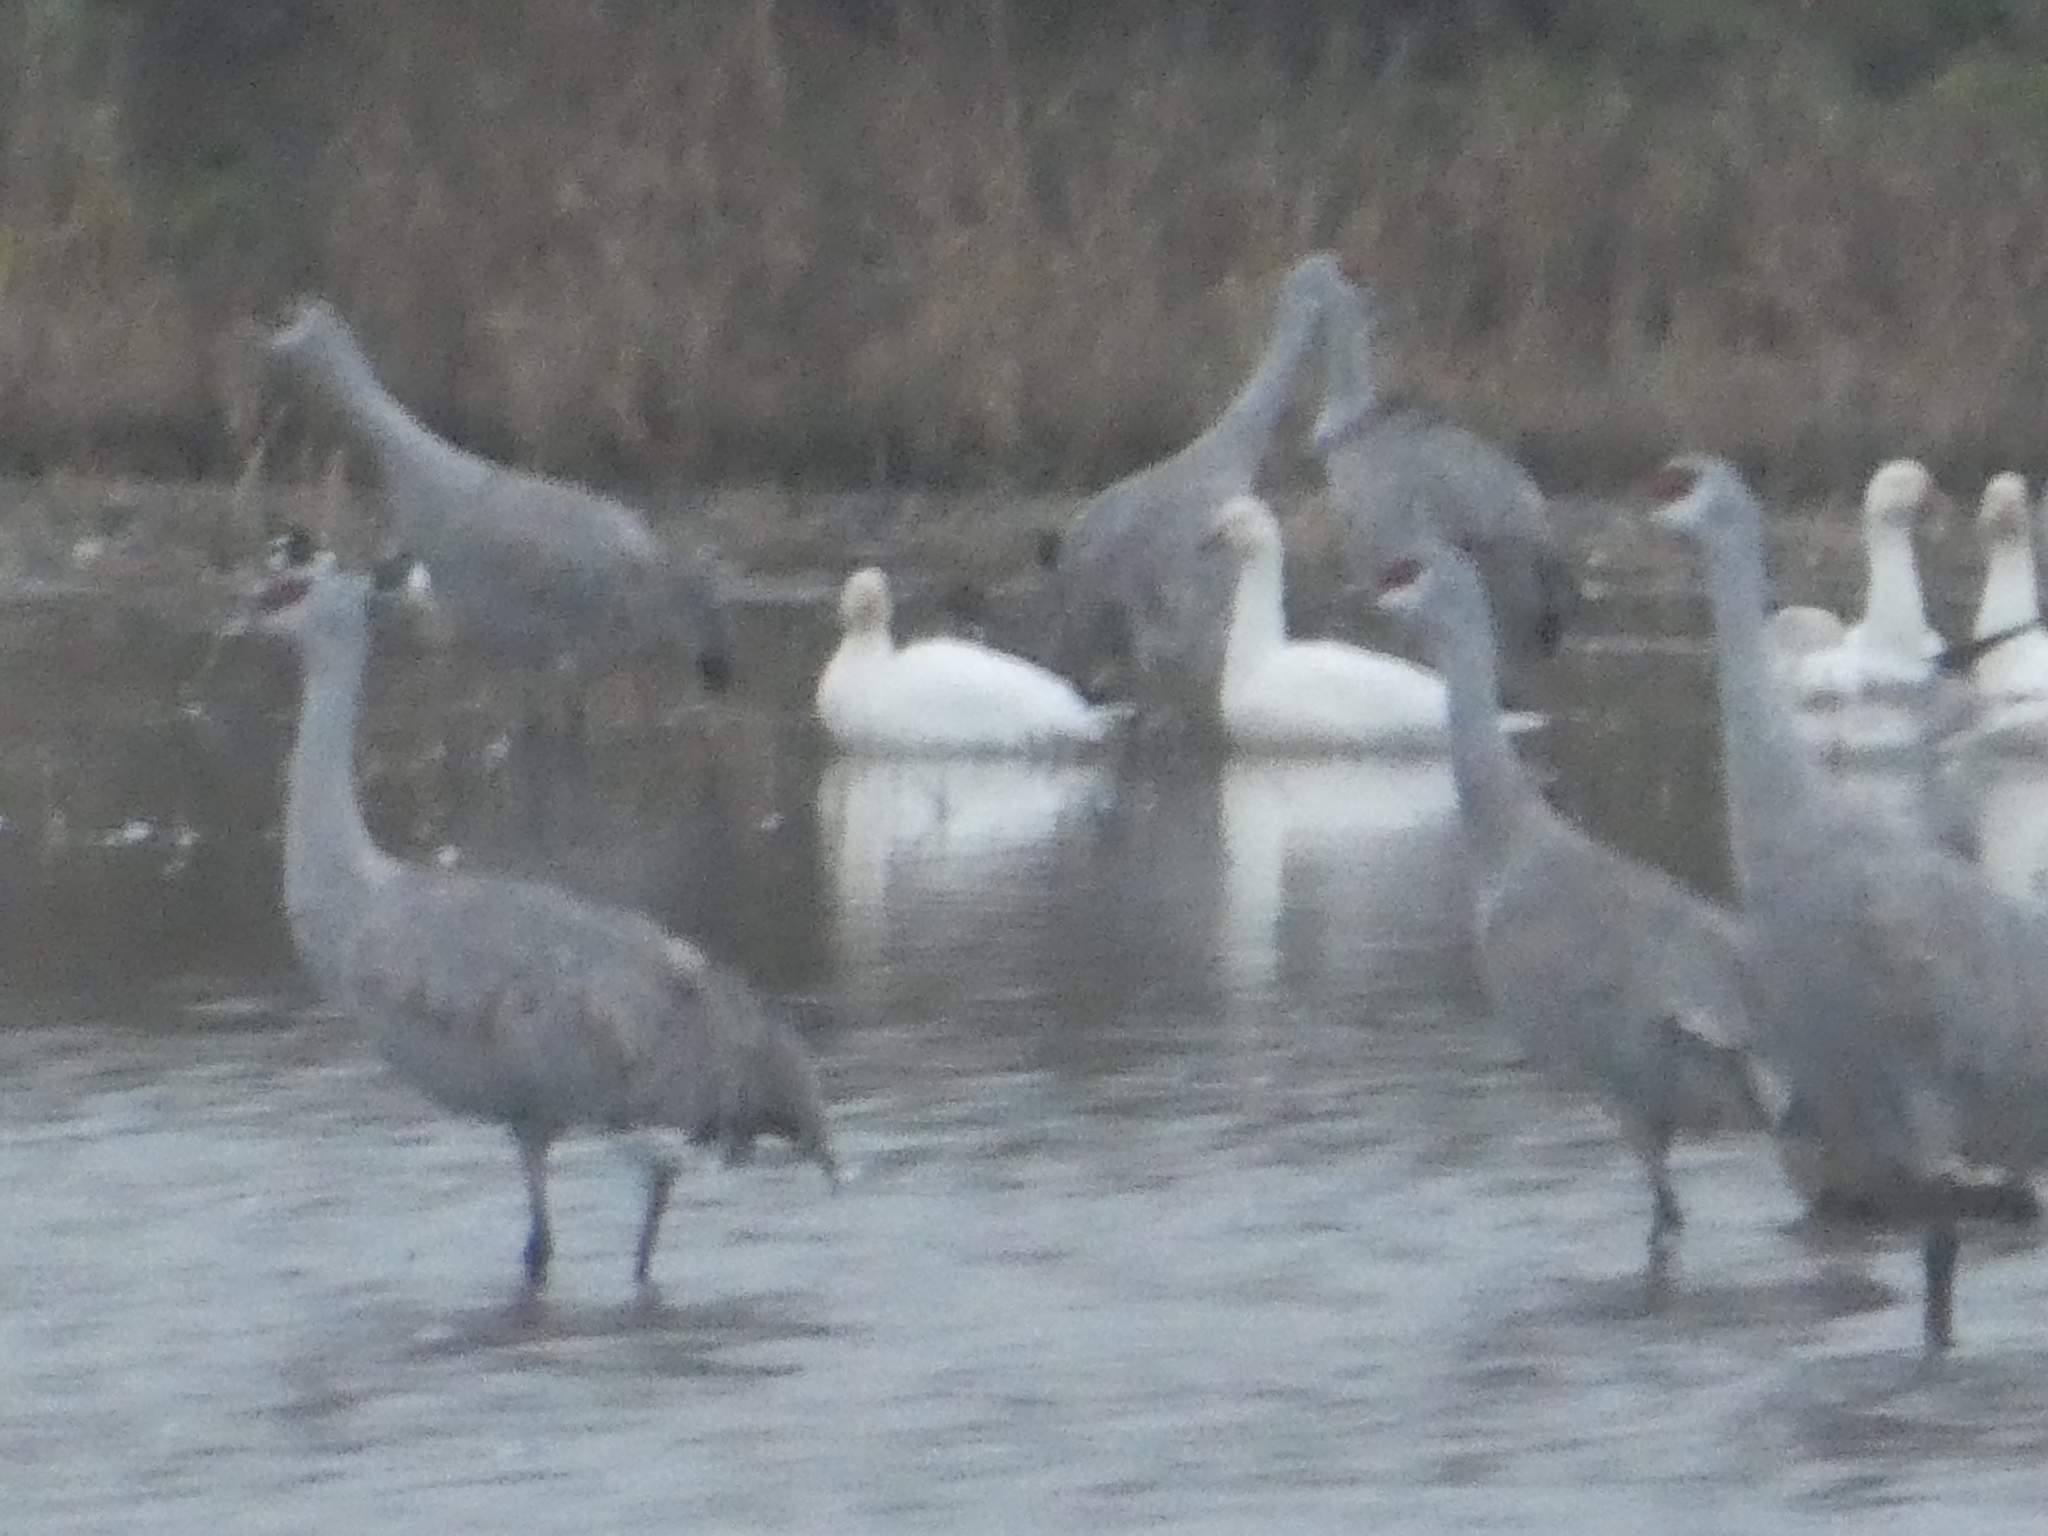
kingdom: Animalia
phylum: Chordata
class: Aves
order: Anseriformes
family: Anatidae
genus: Anser
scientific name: Anser rossii
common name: Ross's goose
